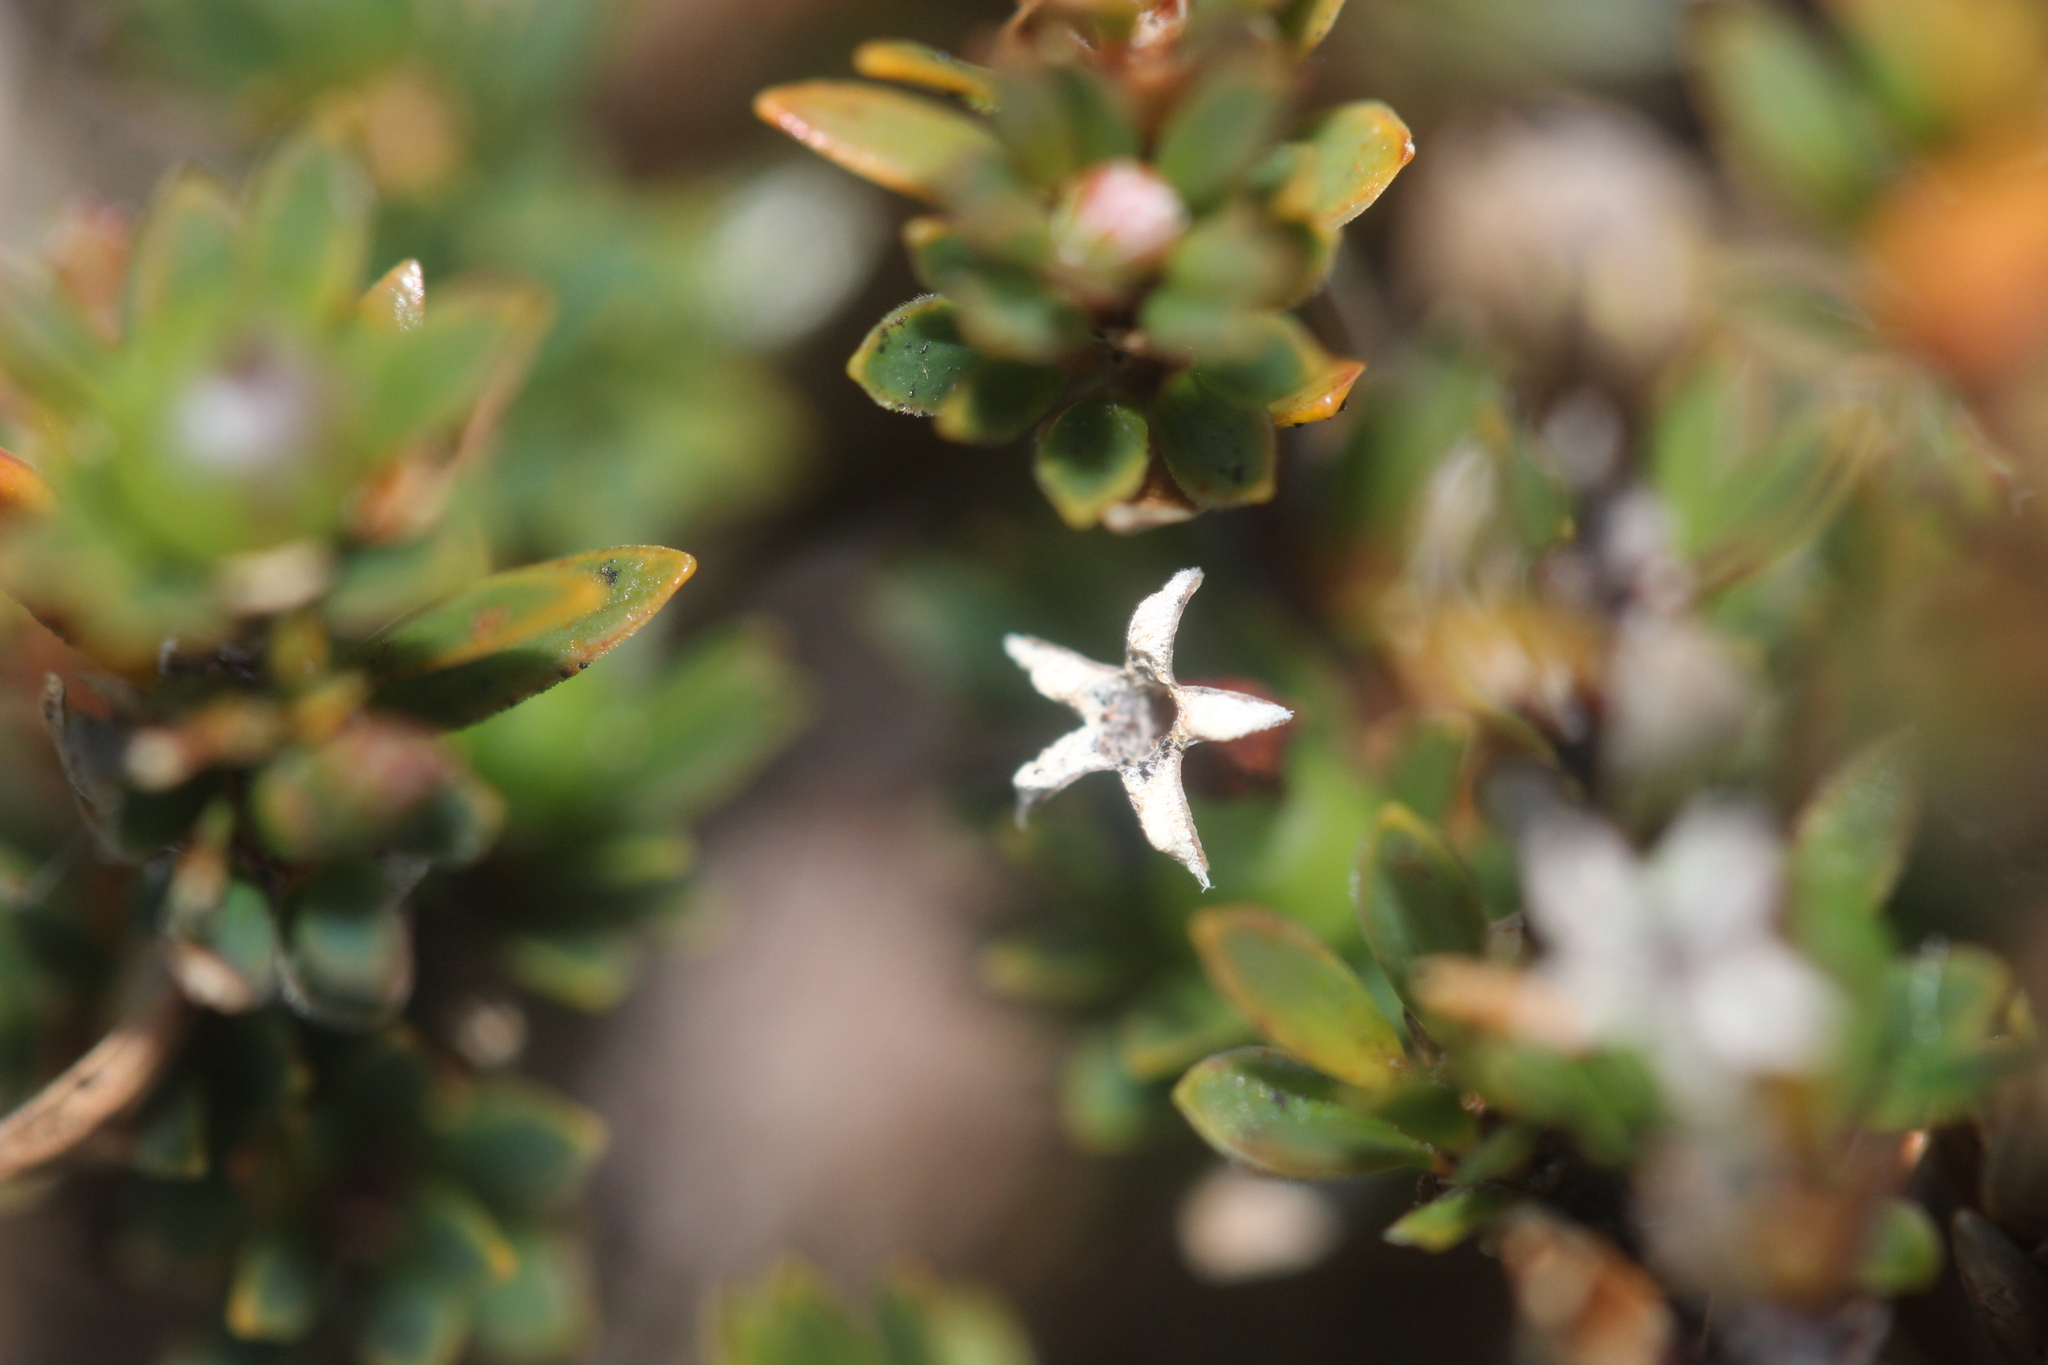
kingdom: Plantae
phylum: Tracheophyta
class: Magnoliopsida
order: Ericales
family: Ericaceae
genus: Pentachondra
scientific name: Pentachondra pumila
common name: Carpet-heath
